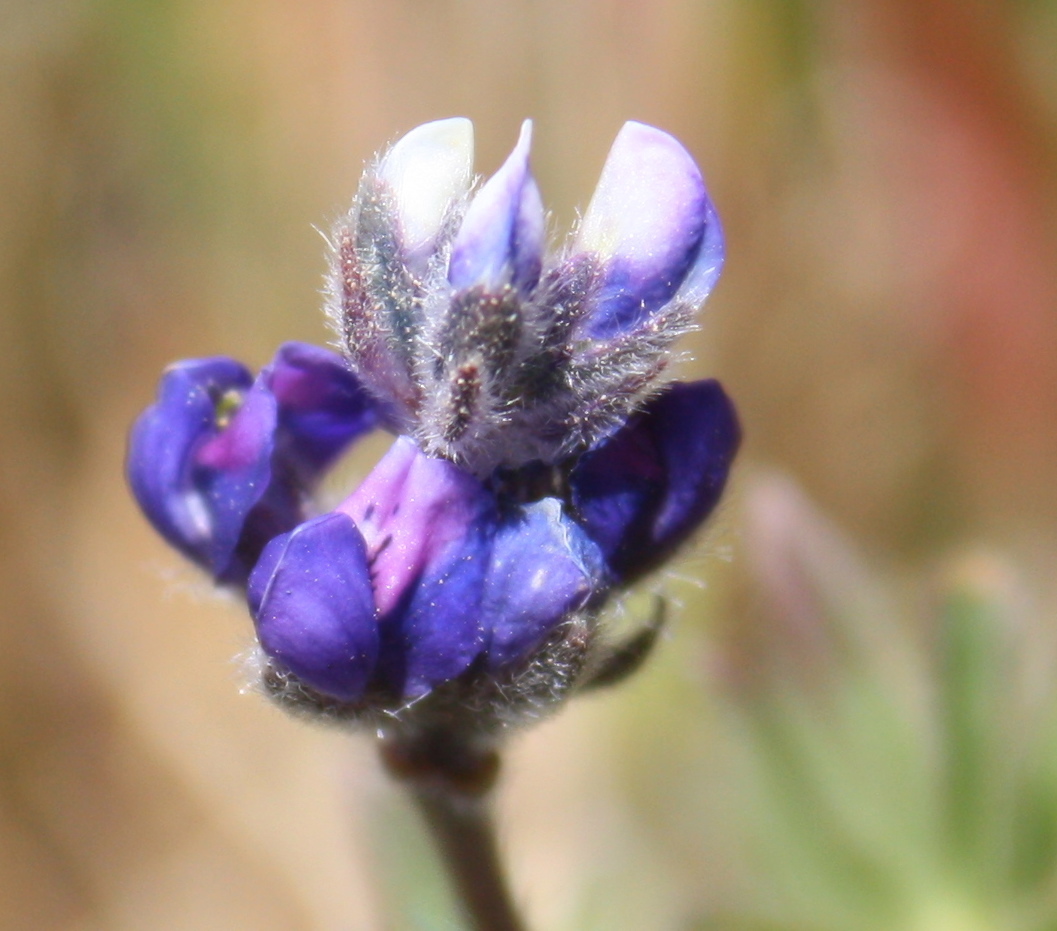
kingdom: Plantae
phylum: Tracheophyta
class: Magnoliopsida
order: Fabales
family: Fabaceae
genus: Lupinus
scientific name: Lupinus bicolor
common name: Miniature lupine
